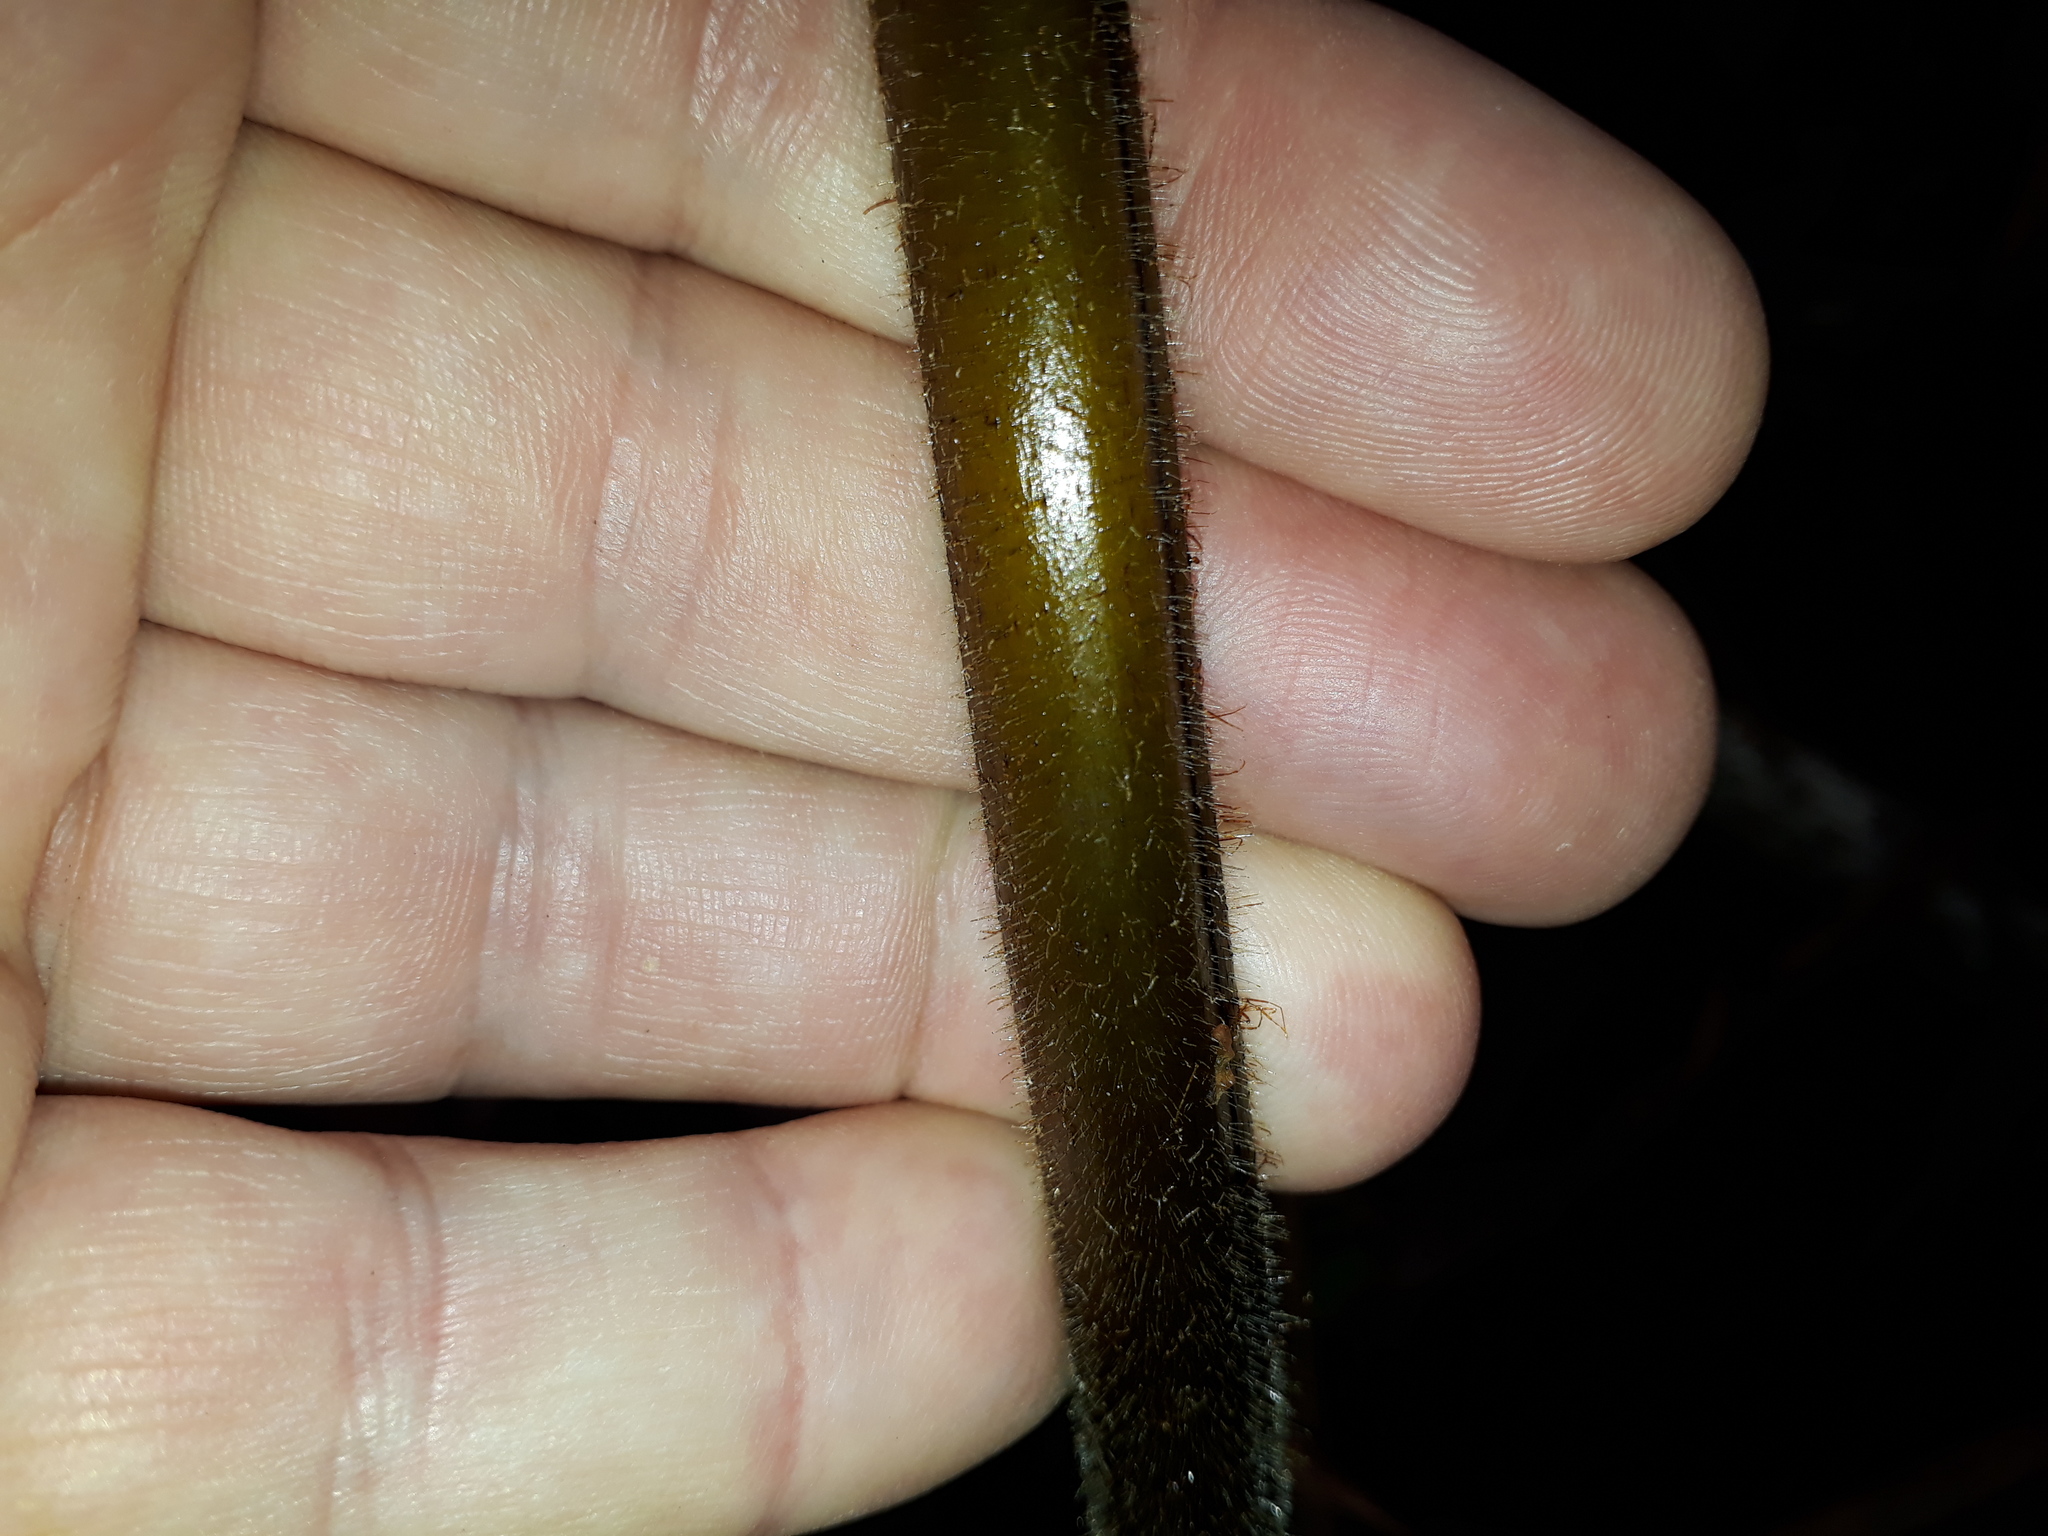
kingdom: Plantae
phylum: Tracheophyta
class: Polypodiopsida
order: Polypodiales
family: Dennstaedtiaceae
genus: Hypolepis
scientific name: Hypolepis dicksonioides
